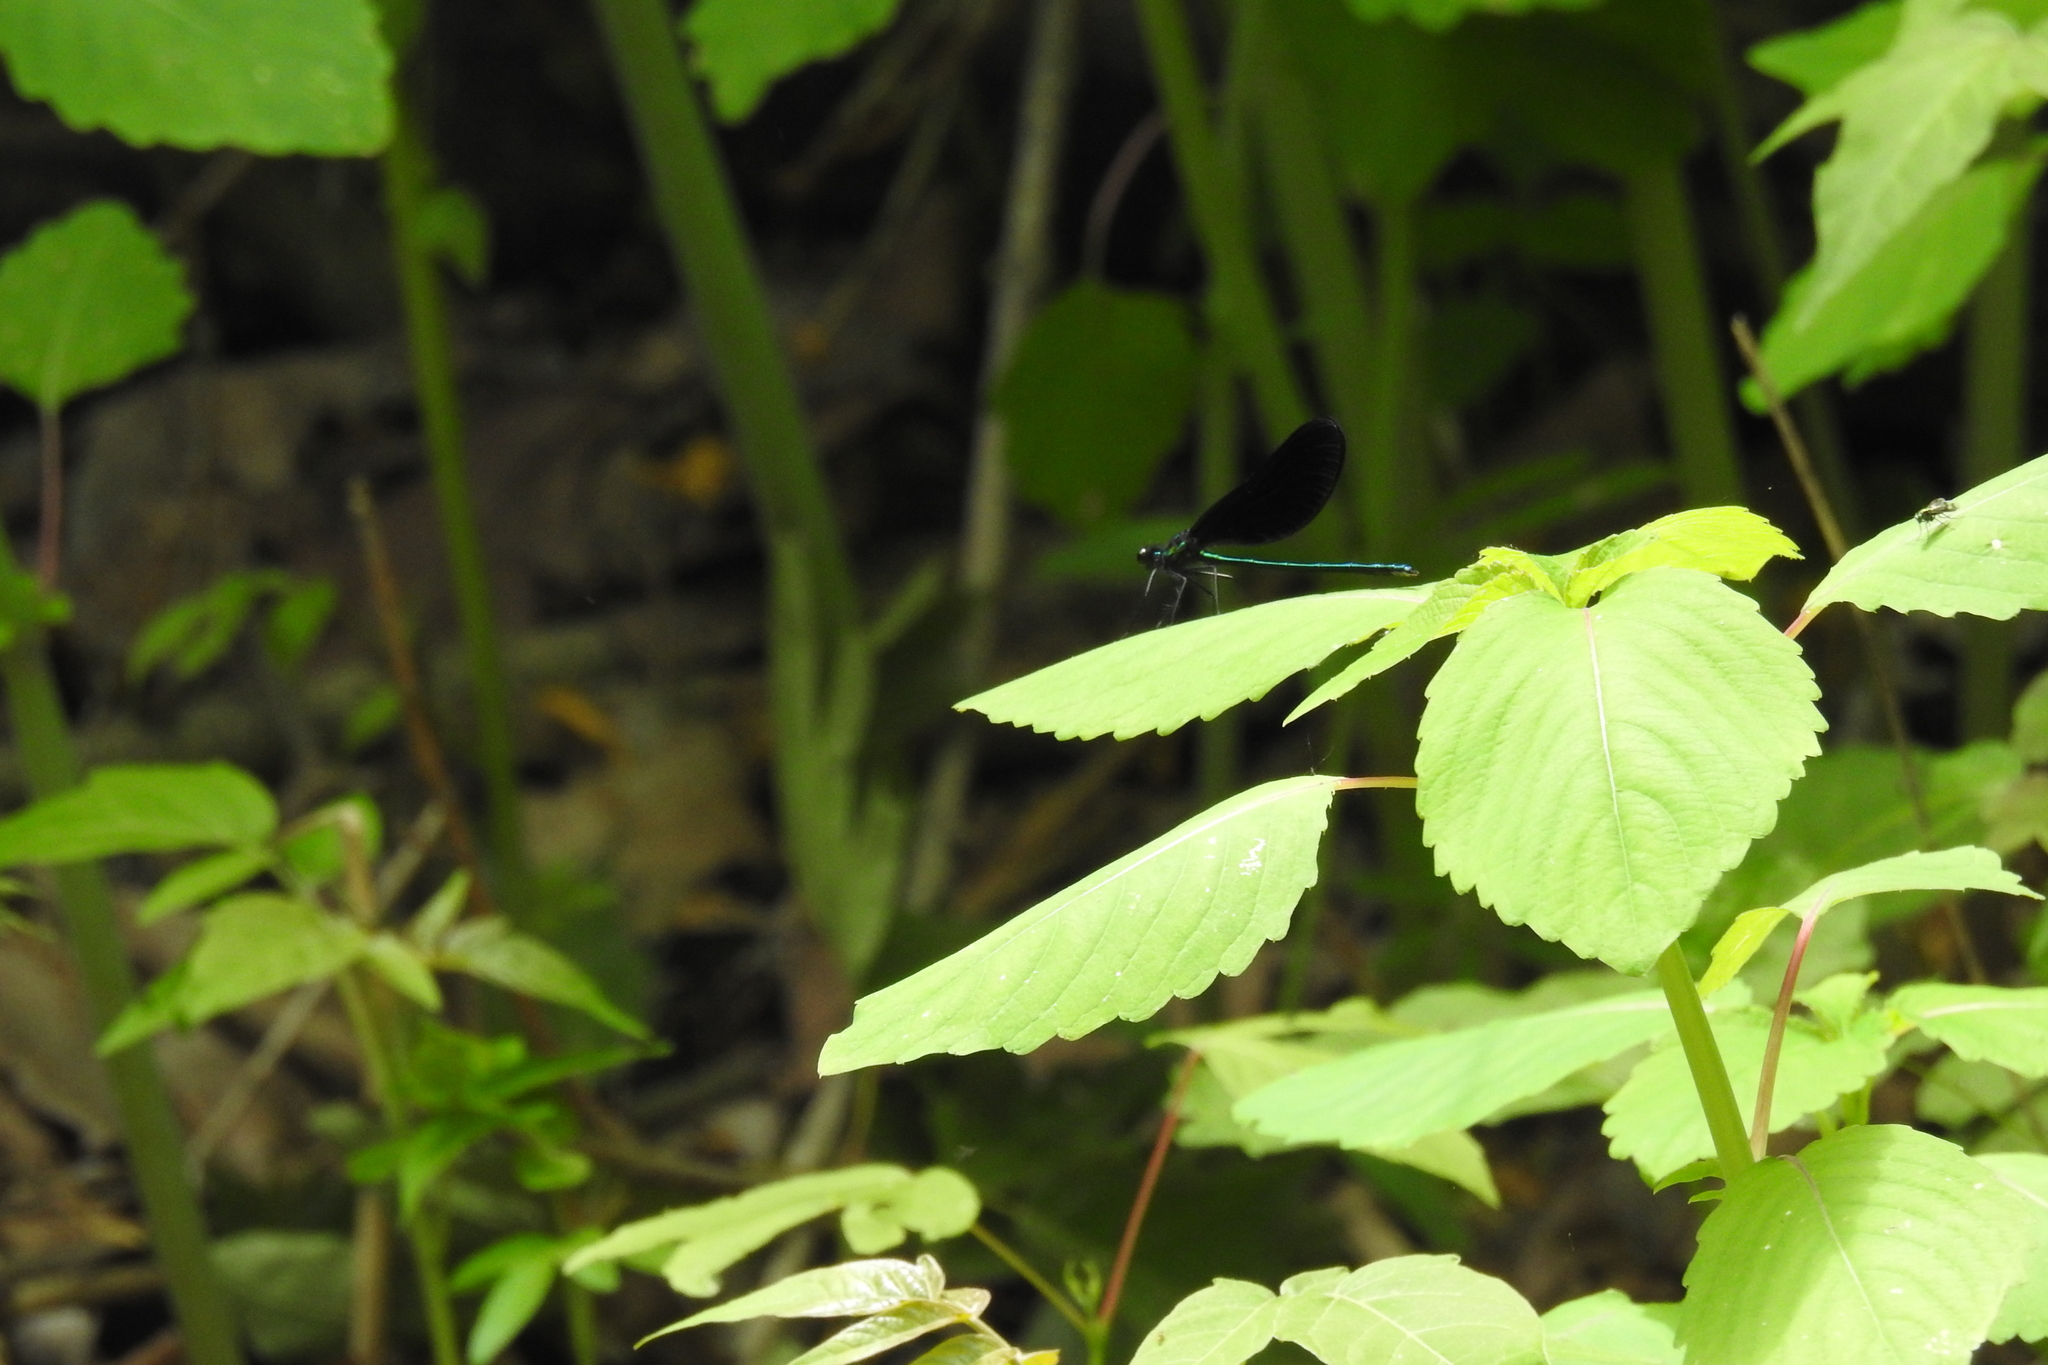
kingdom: Animalia
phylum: Arthropoda
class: Insecta
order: Odonata
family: Calopterygidae
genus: Calopteryx
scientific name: Calopteryx maculata
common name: Ebony jewelwing
